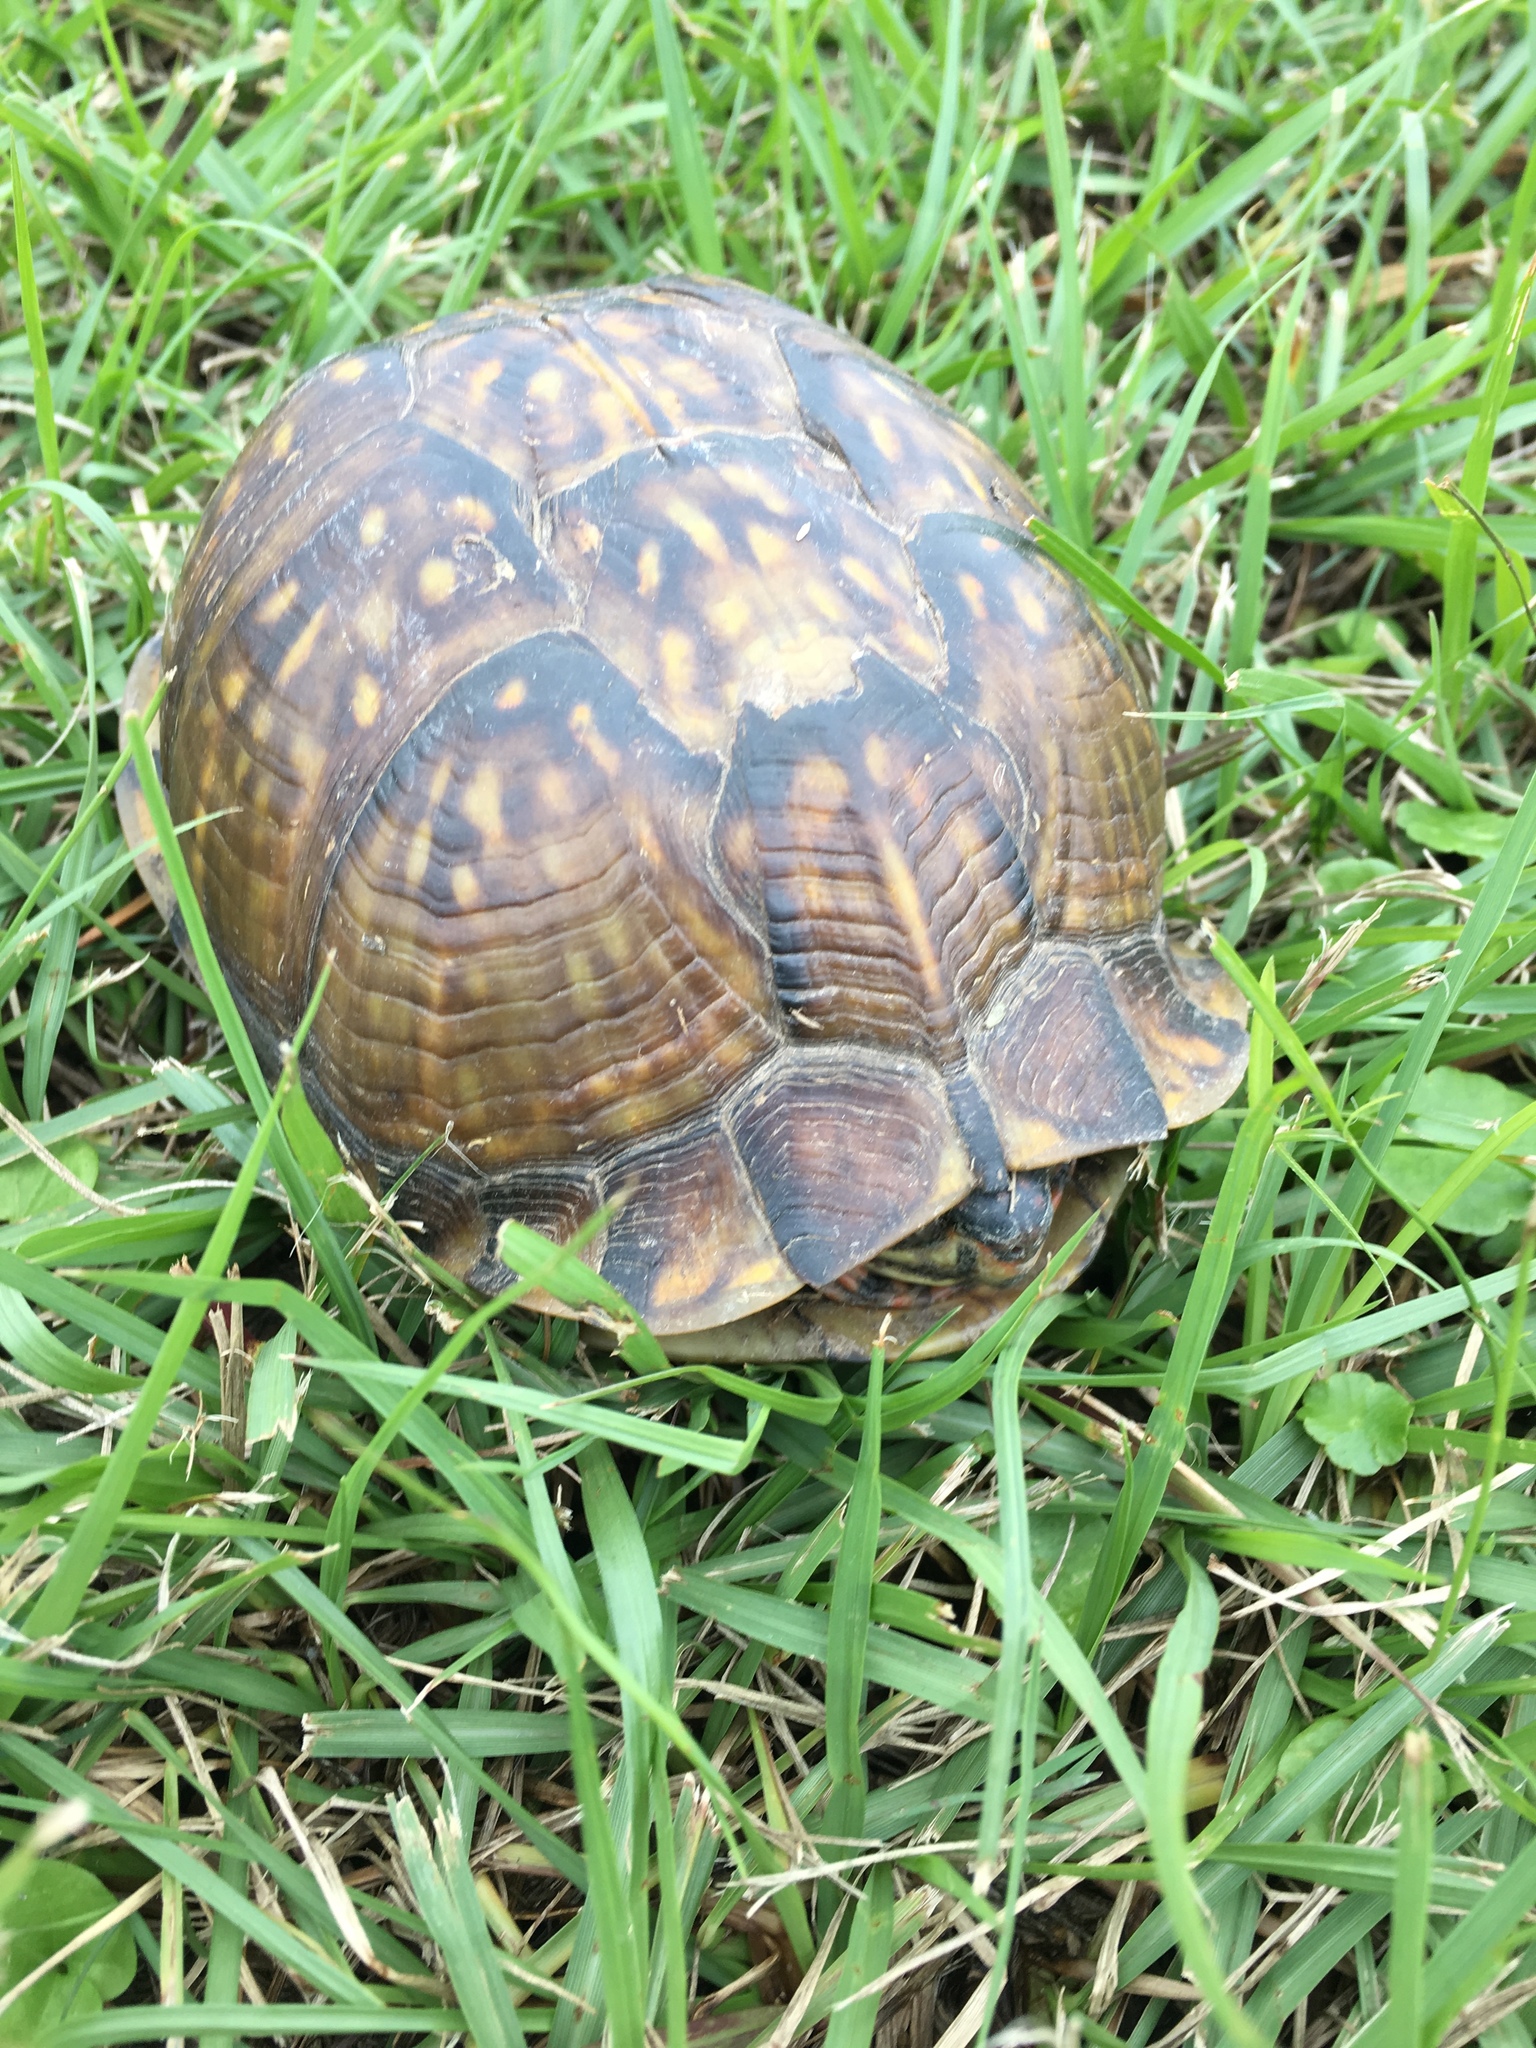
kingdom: Animalia
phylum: Chordata
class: Testudines
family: Emydidae
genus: Terrapene
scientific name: Terrapene carolina
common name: Common box turtle
